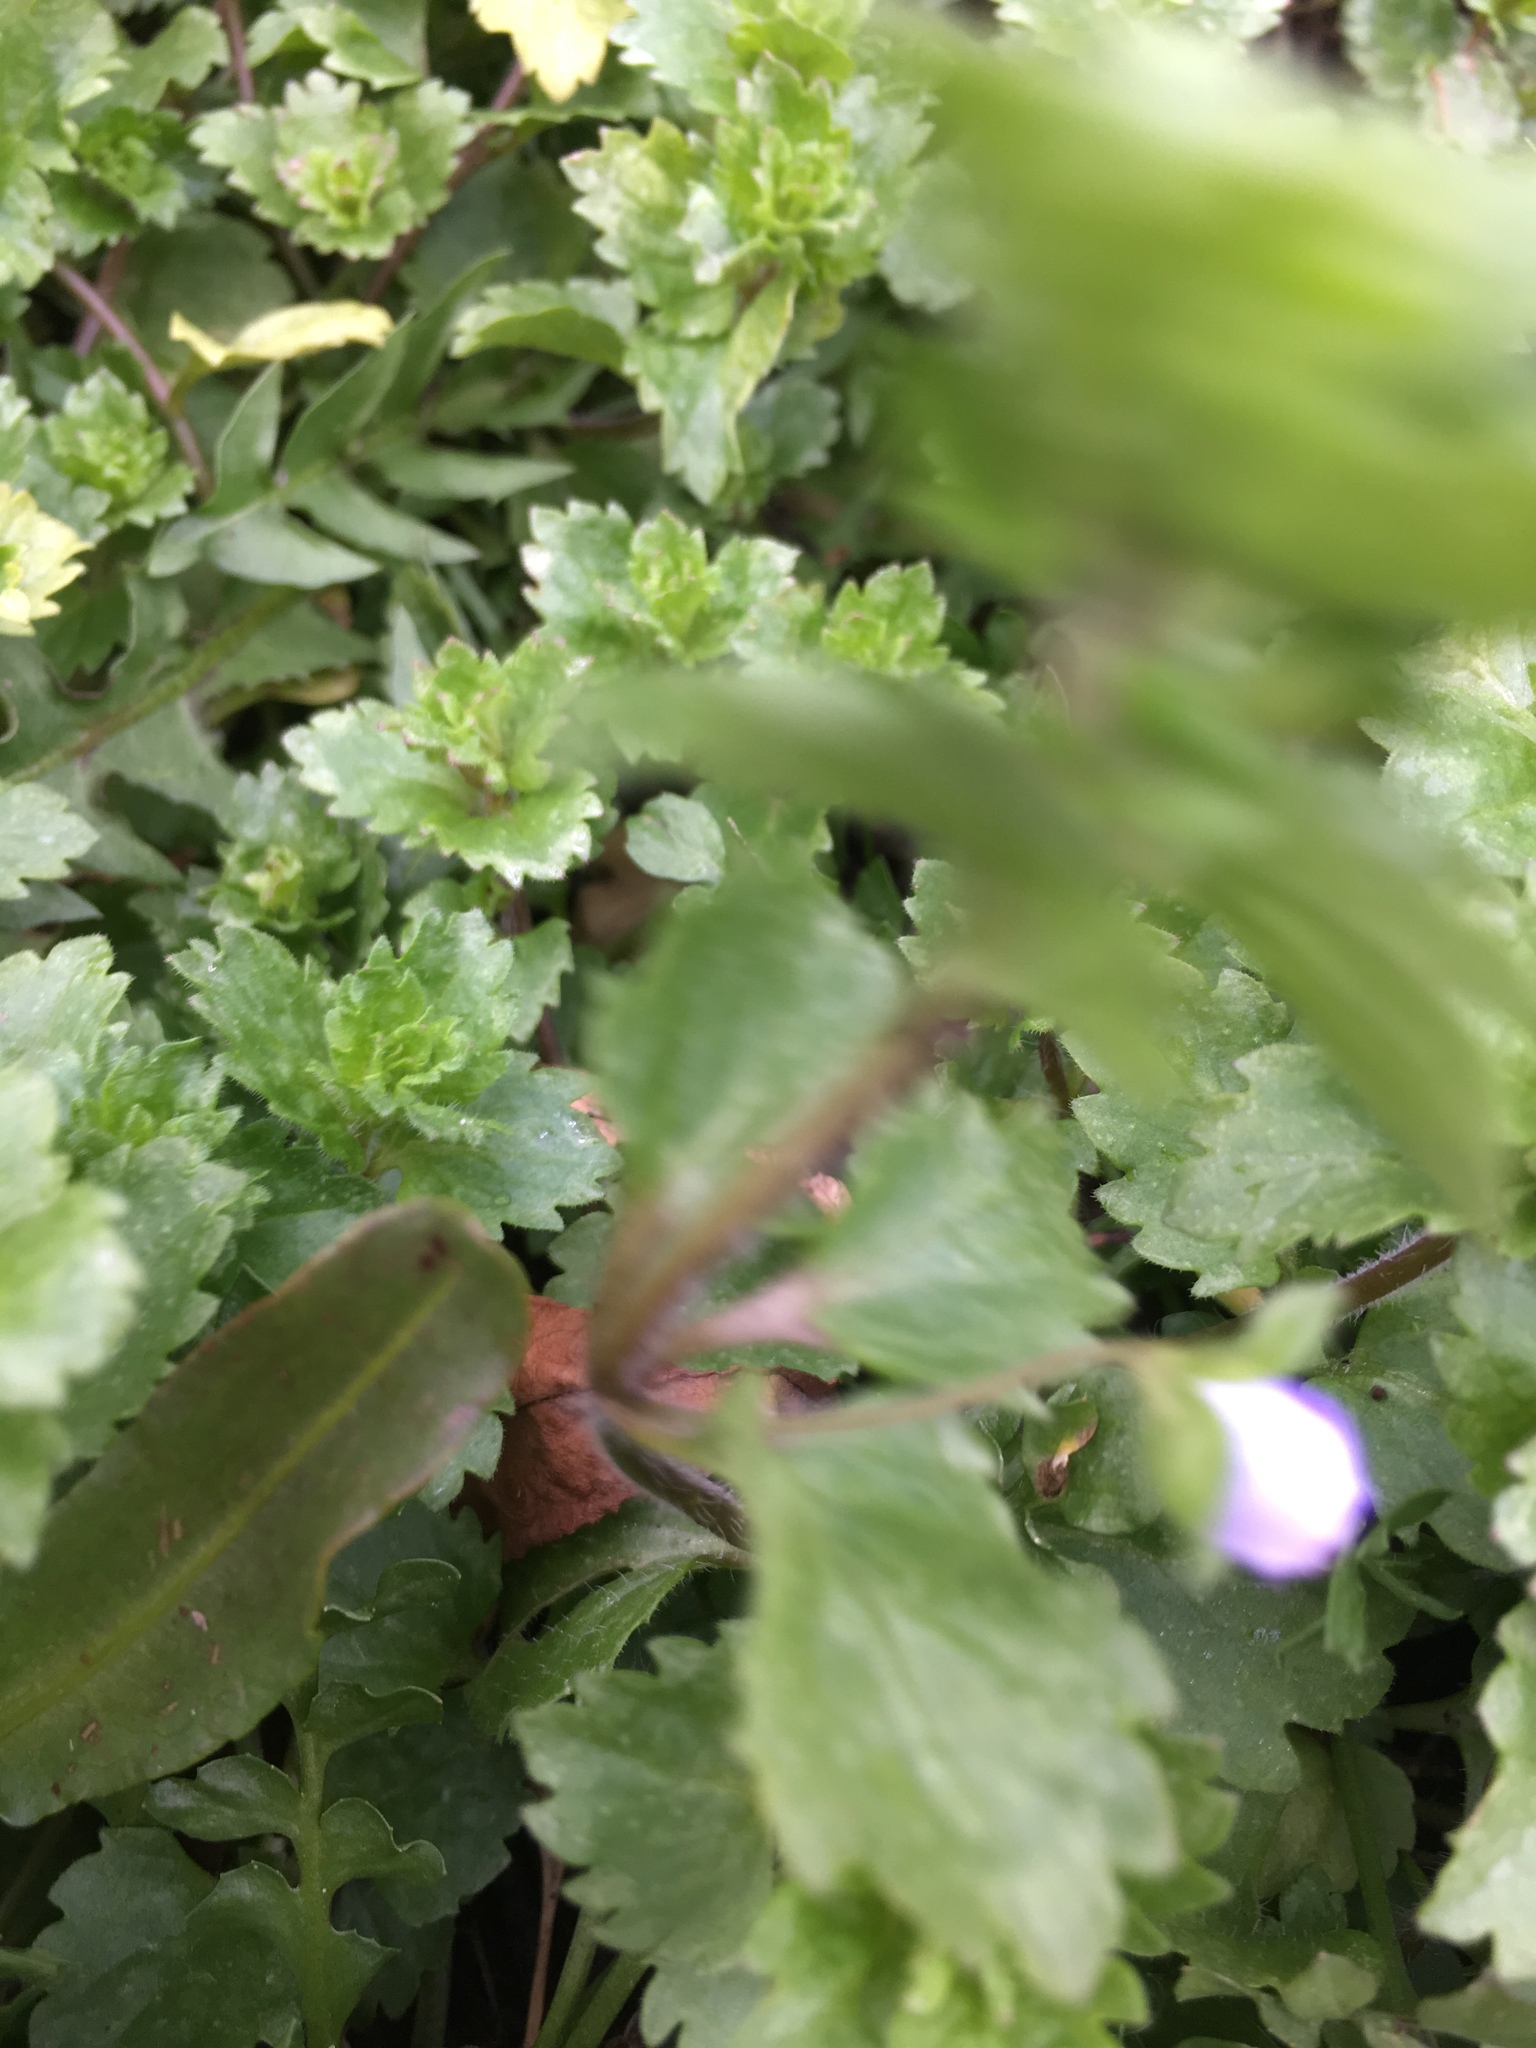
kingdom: Plantae
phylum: Tracheophyta
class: Magnoliopsida
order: Lamiales
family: Plantaginaceae
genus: Veronica
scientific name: Veronica persica
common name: Common field-speedwell
